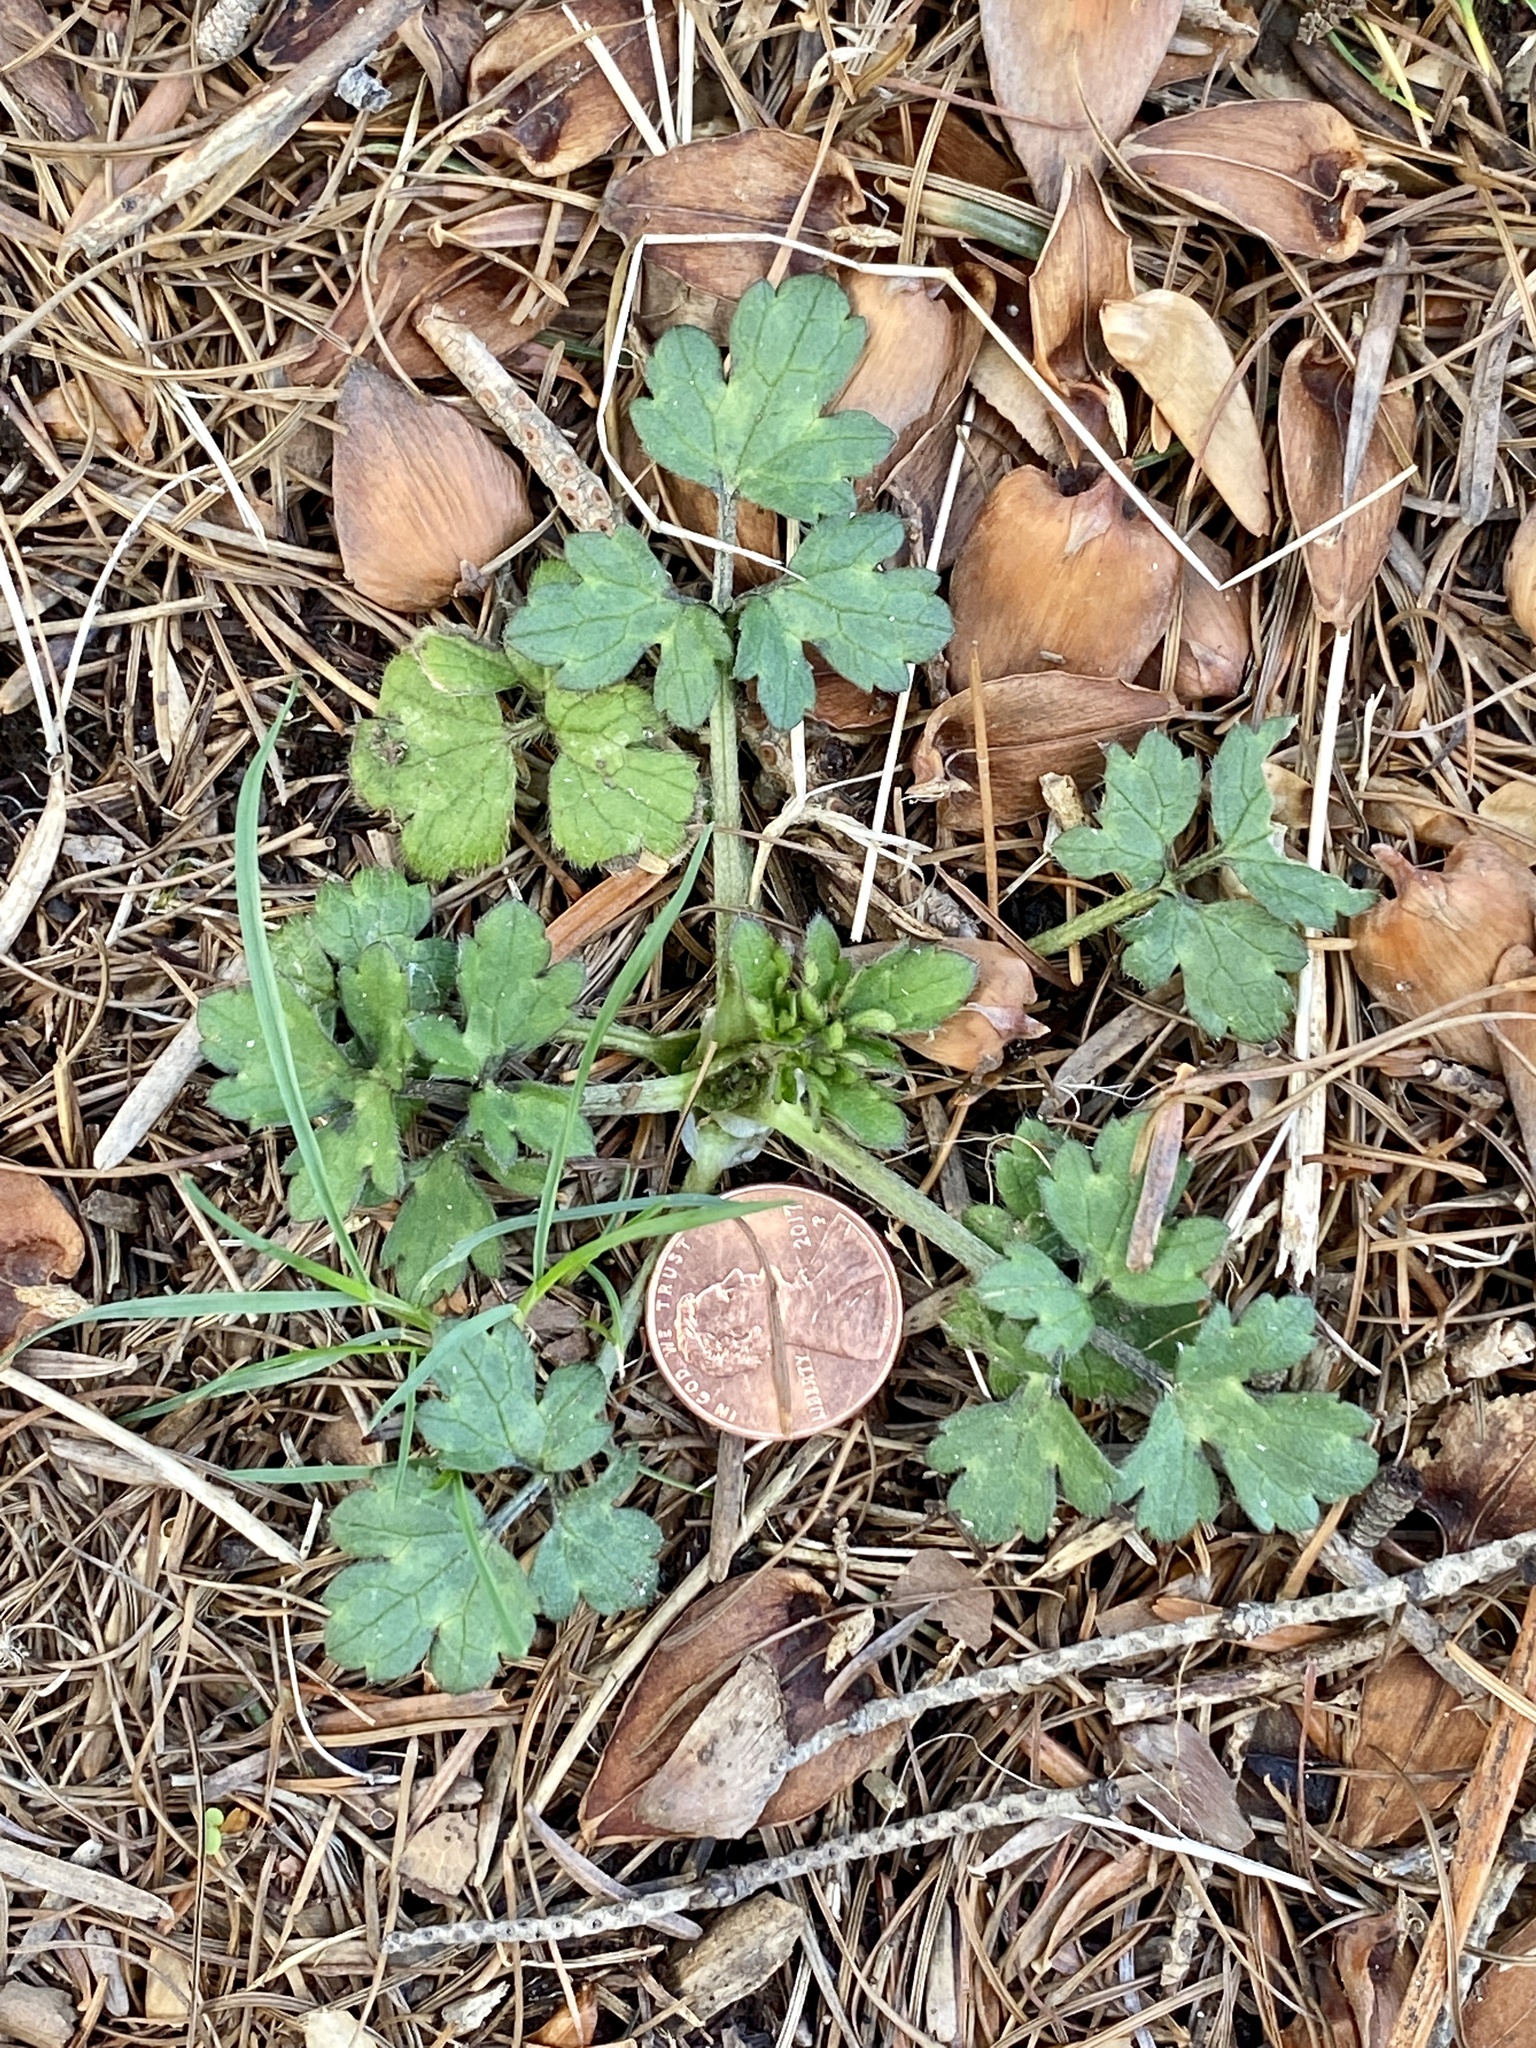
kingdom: Plantae
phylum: Tracheophyta
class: Magnoliopsida
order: Ranunculales
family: Ranunculaceae
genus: Ranunculus
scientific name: Ranunculus repens
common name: Creeping buttercup
